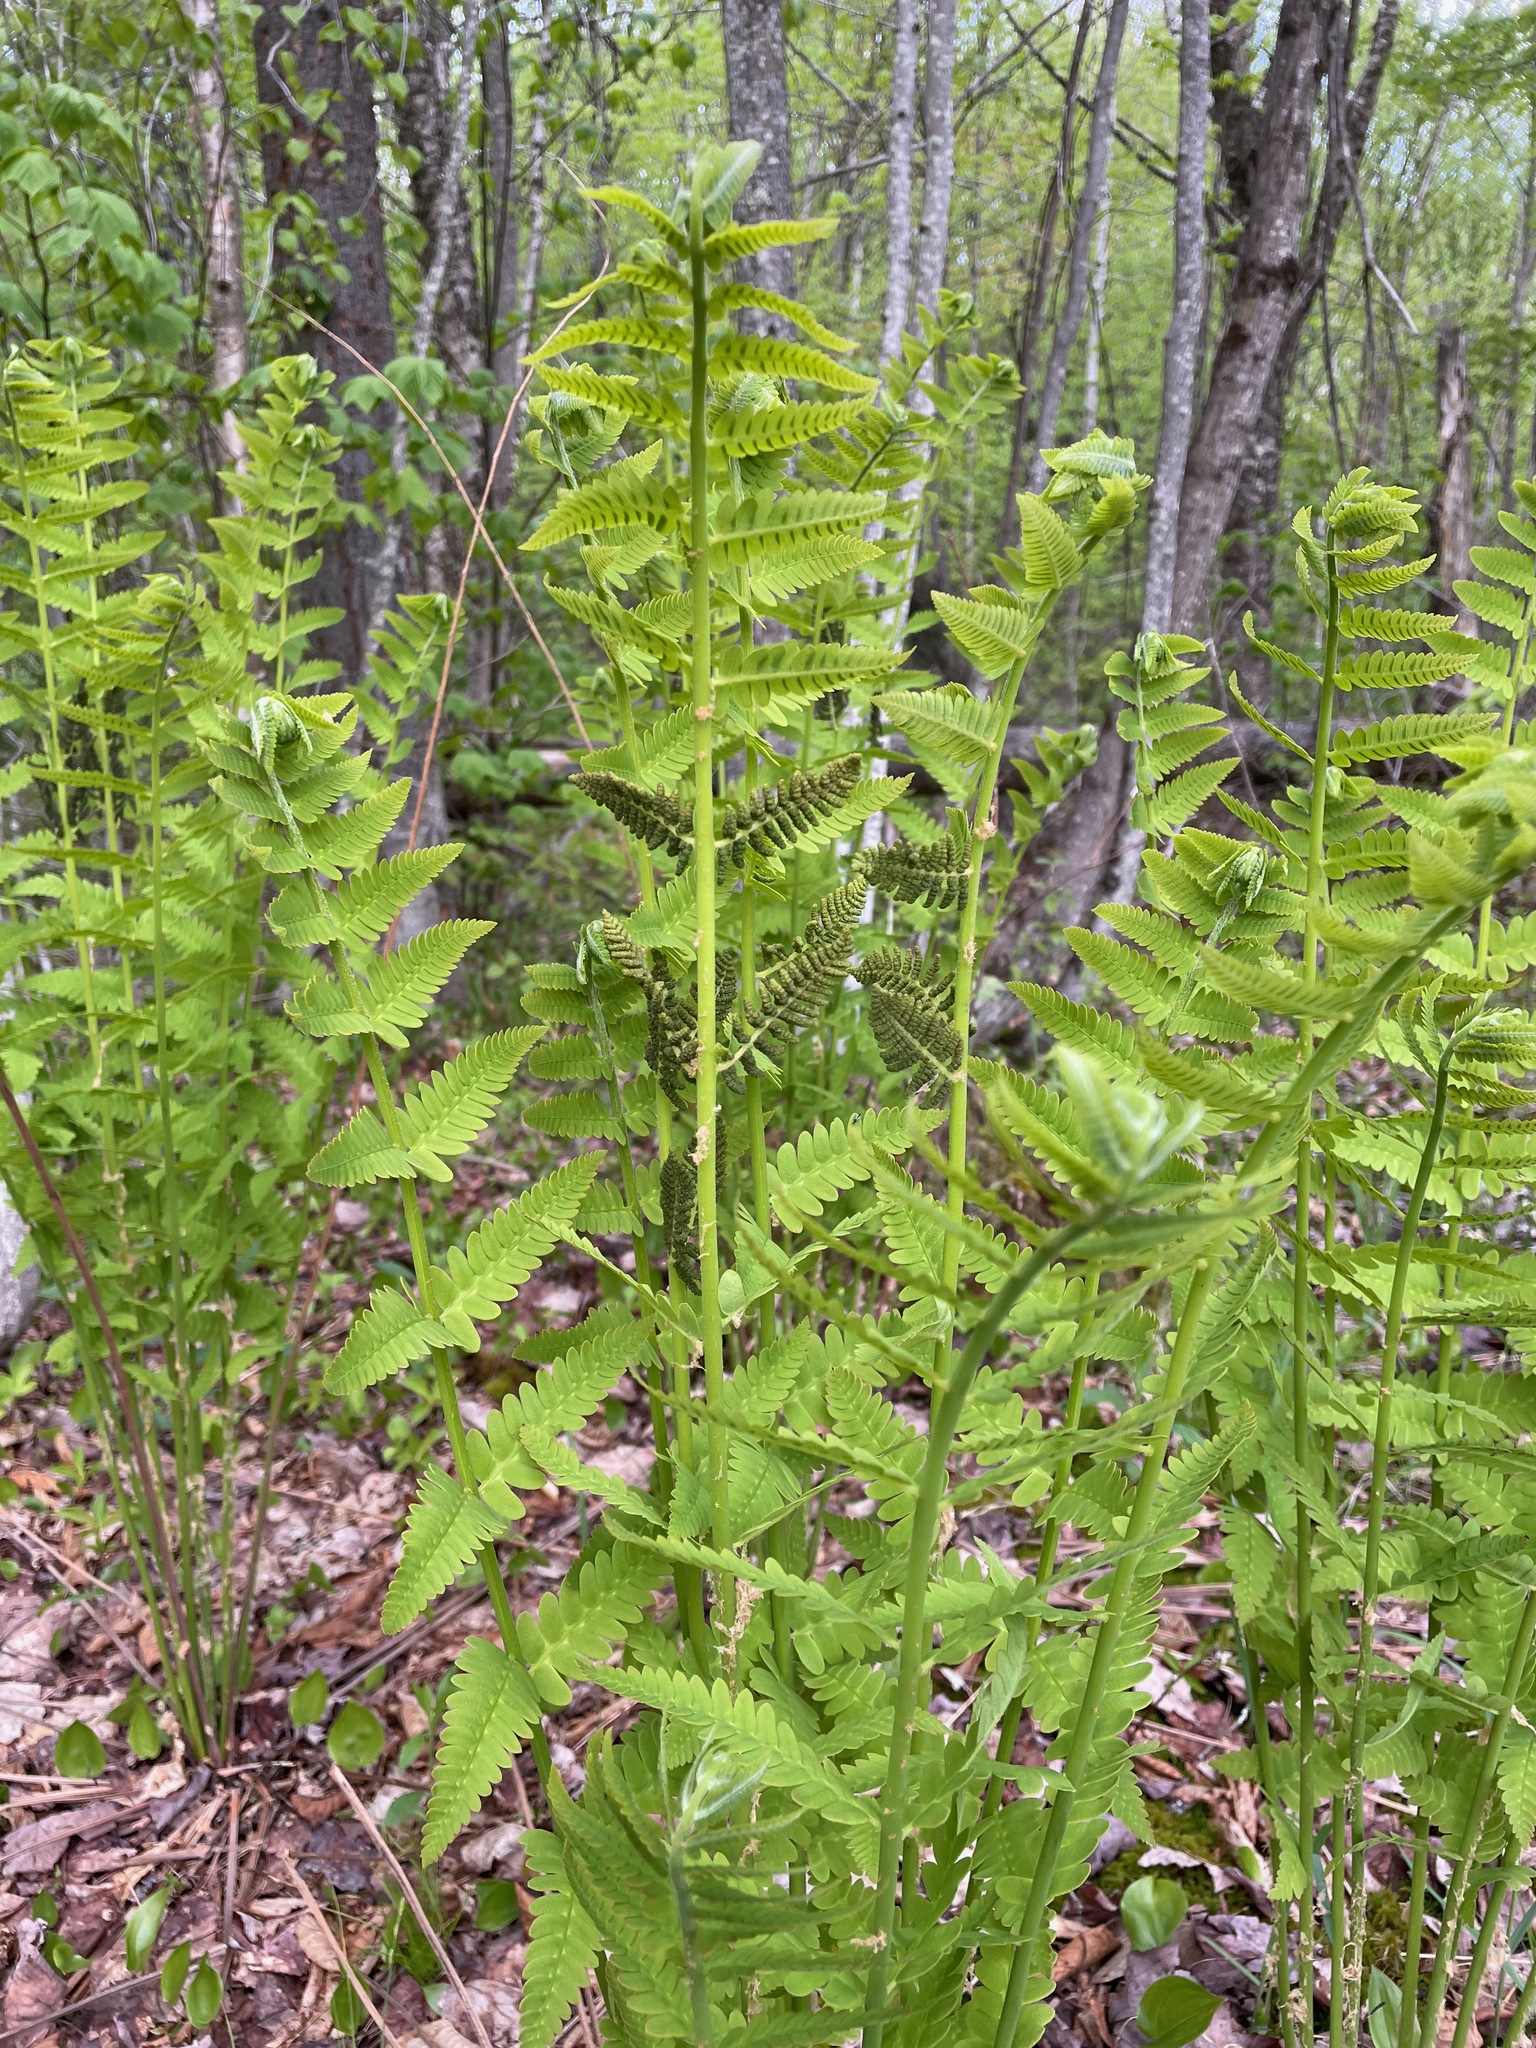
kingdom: Plantae
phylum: Tracheophyta
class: Polypodiopsida
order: Osmundales
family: Osmundaceae
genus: Claytosmunda
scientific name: Claytosmunda claytoniana
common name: Clayton's fern
